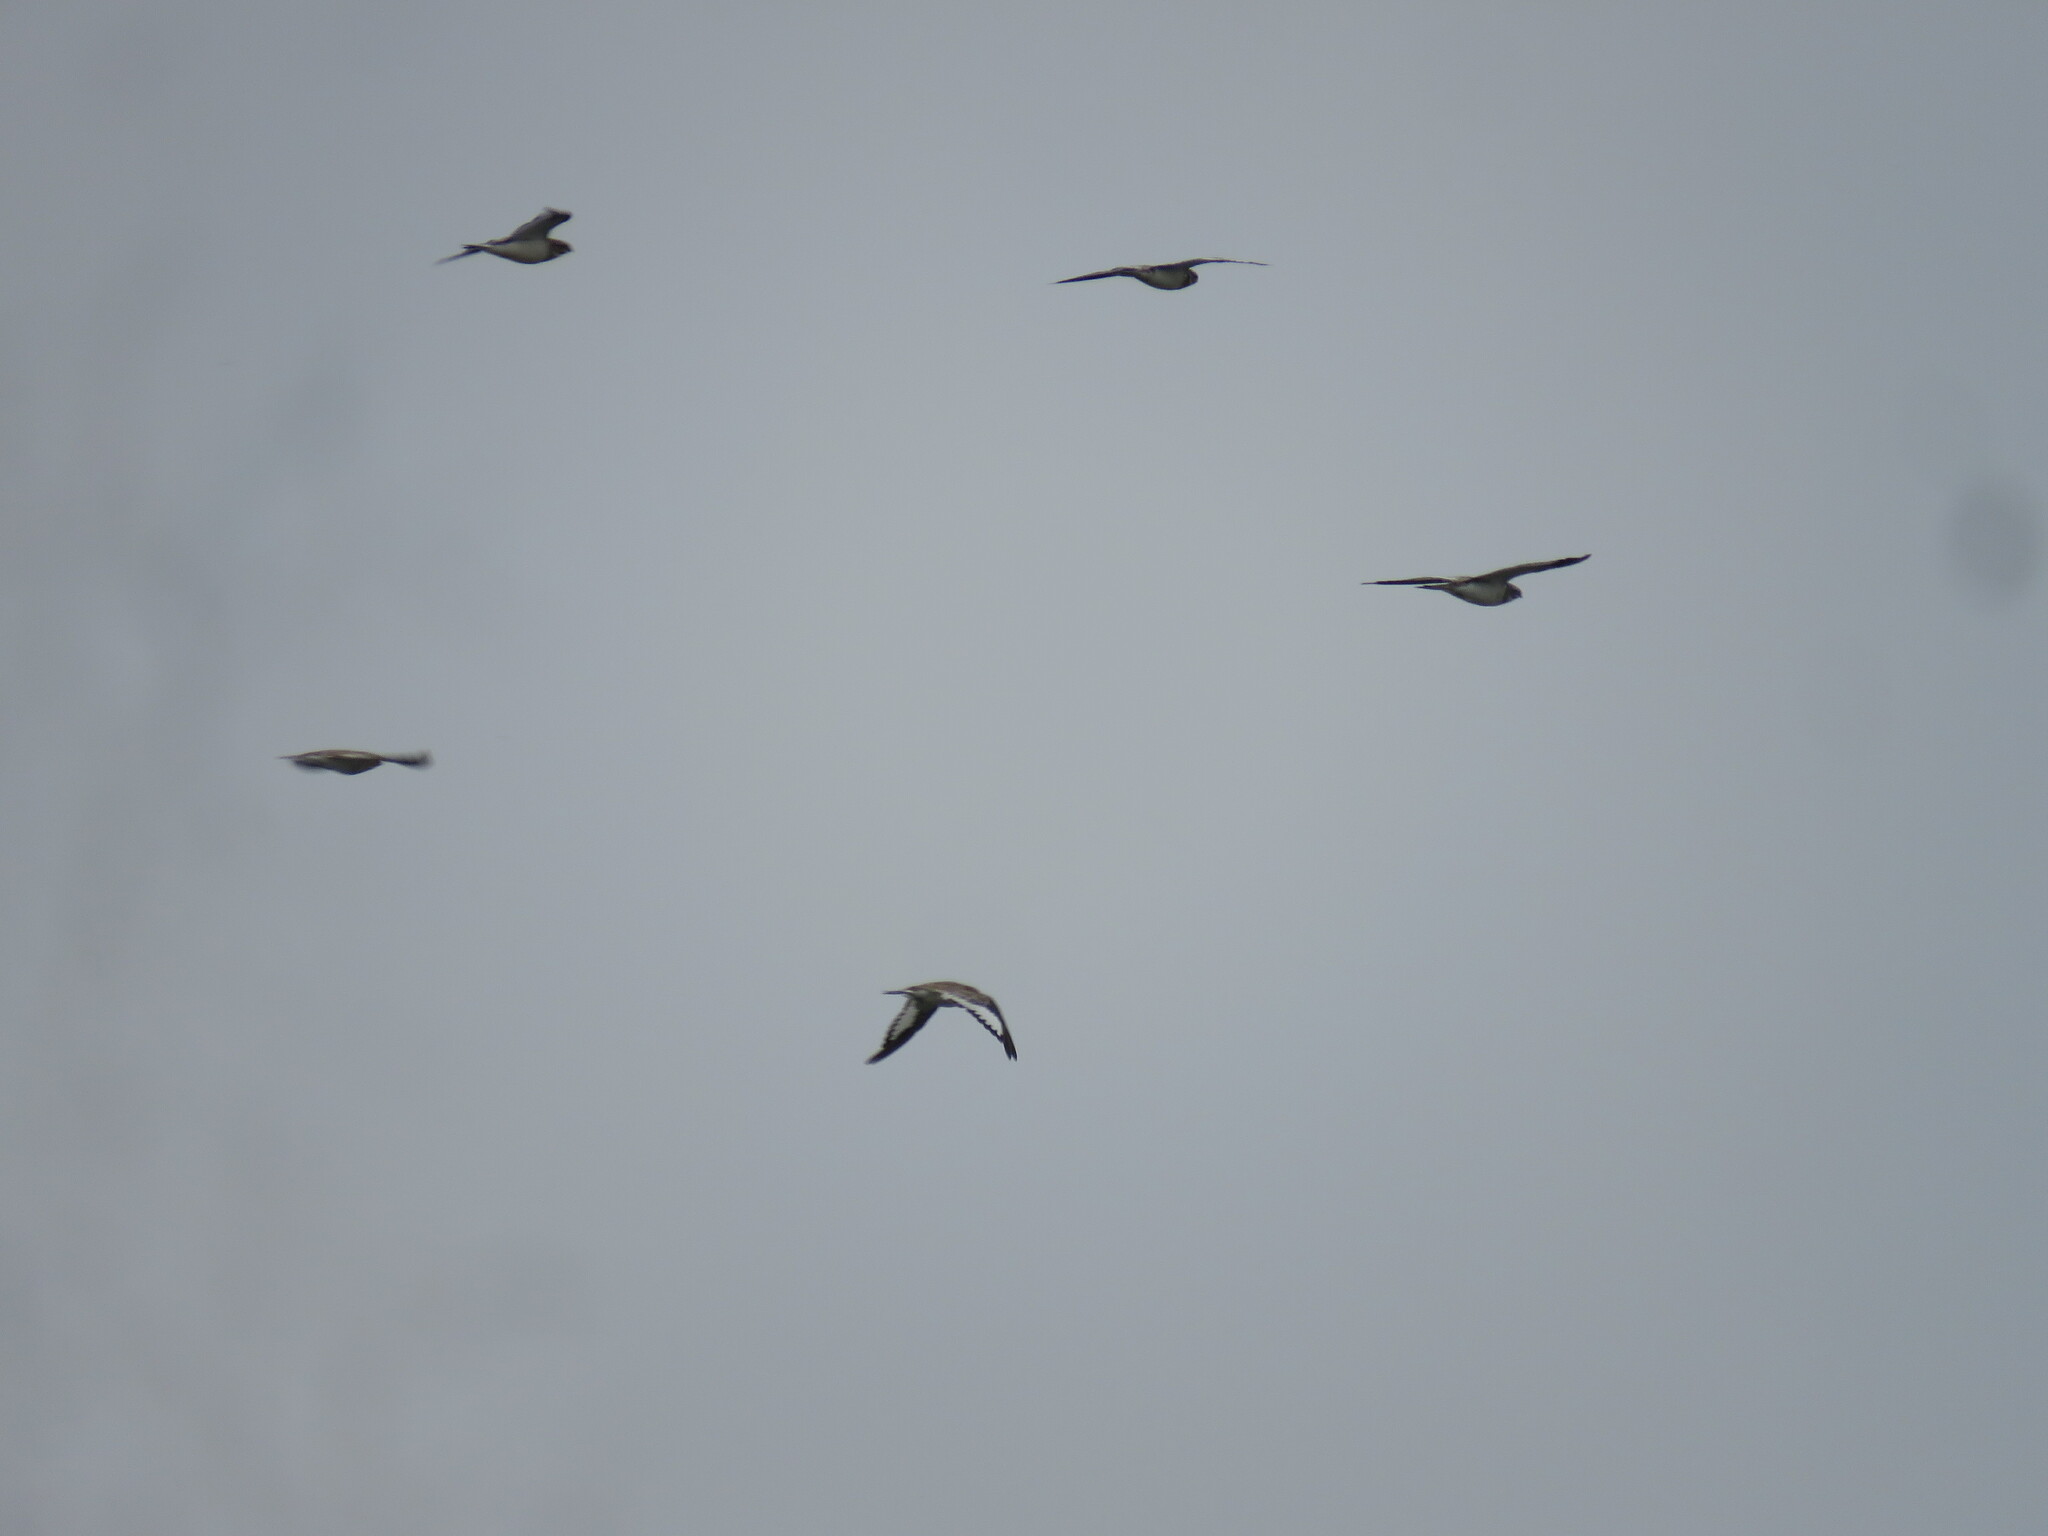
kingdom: Animalia
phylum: Chordata
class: Aves
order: Caprimulgiformes
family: Caprimulgidae
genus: Chordeiles
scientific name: Chordeiles rupestris
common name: Sand-colored nighthawk
